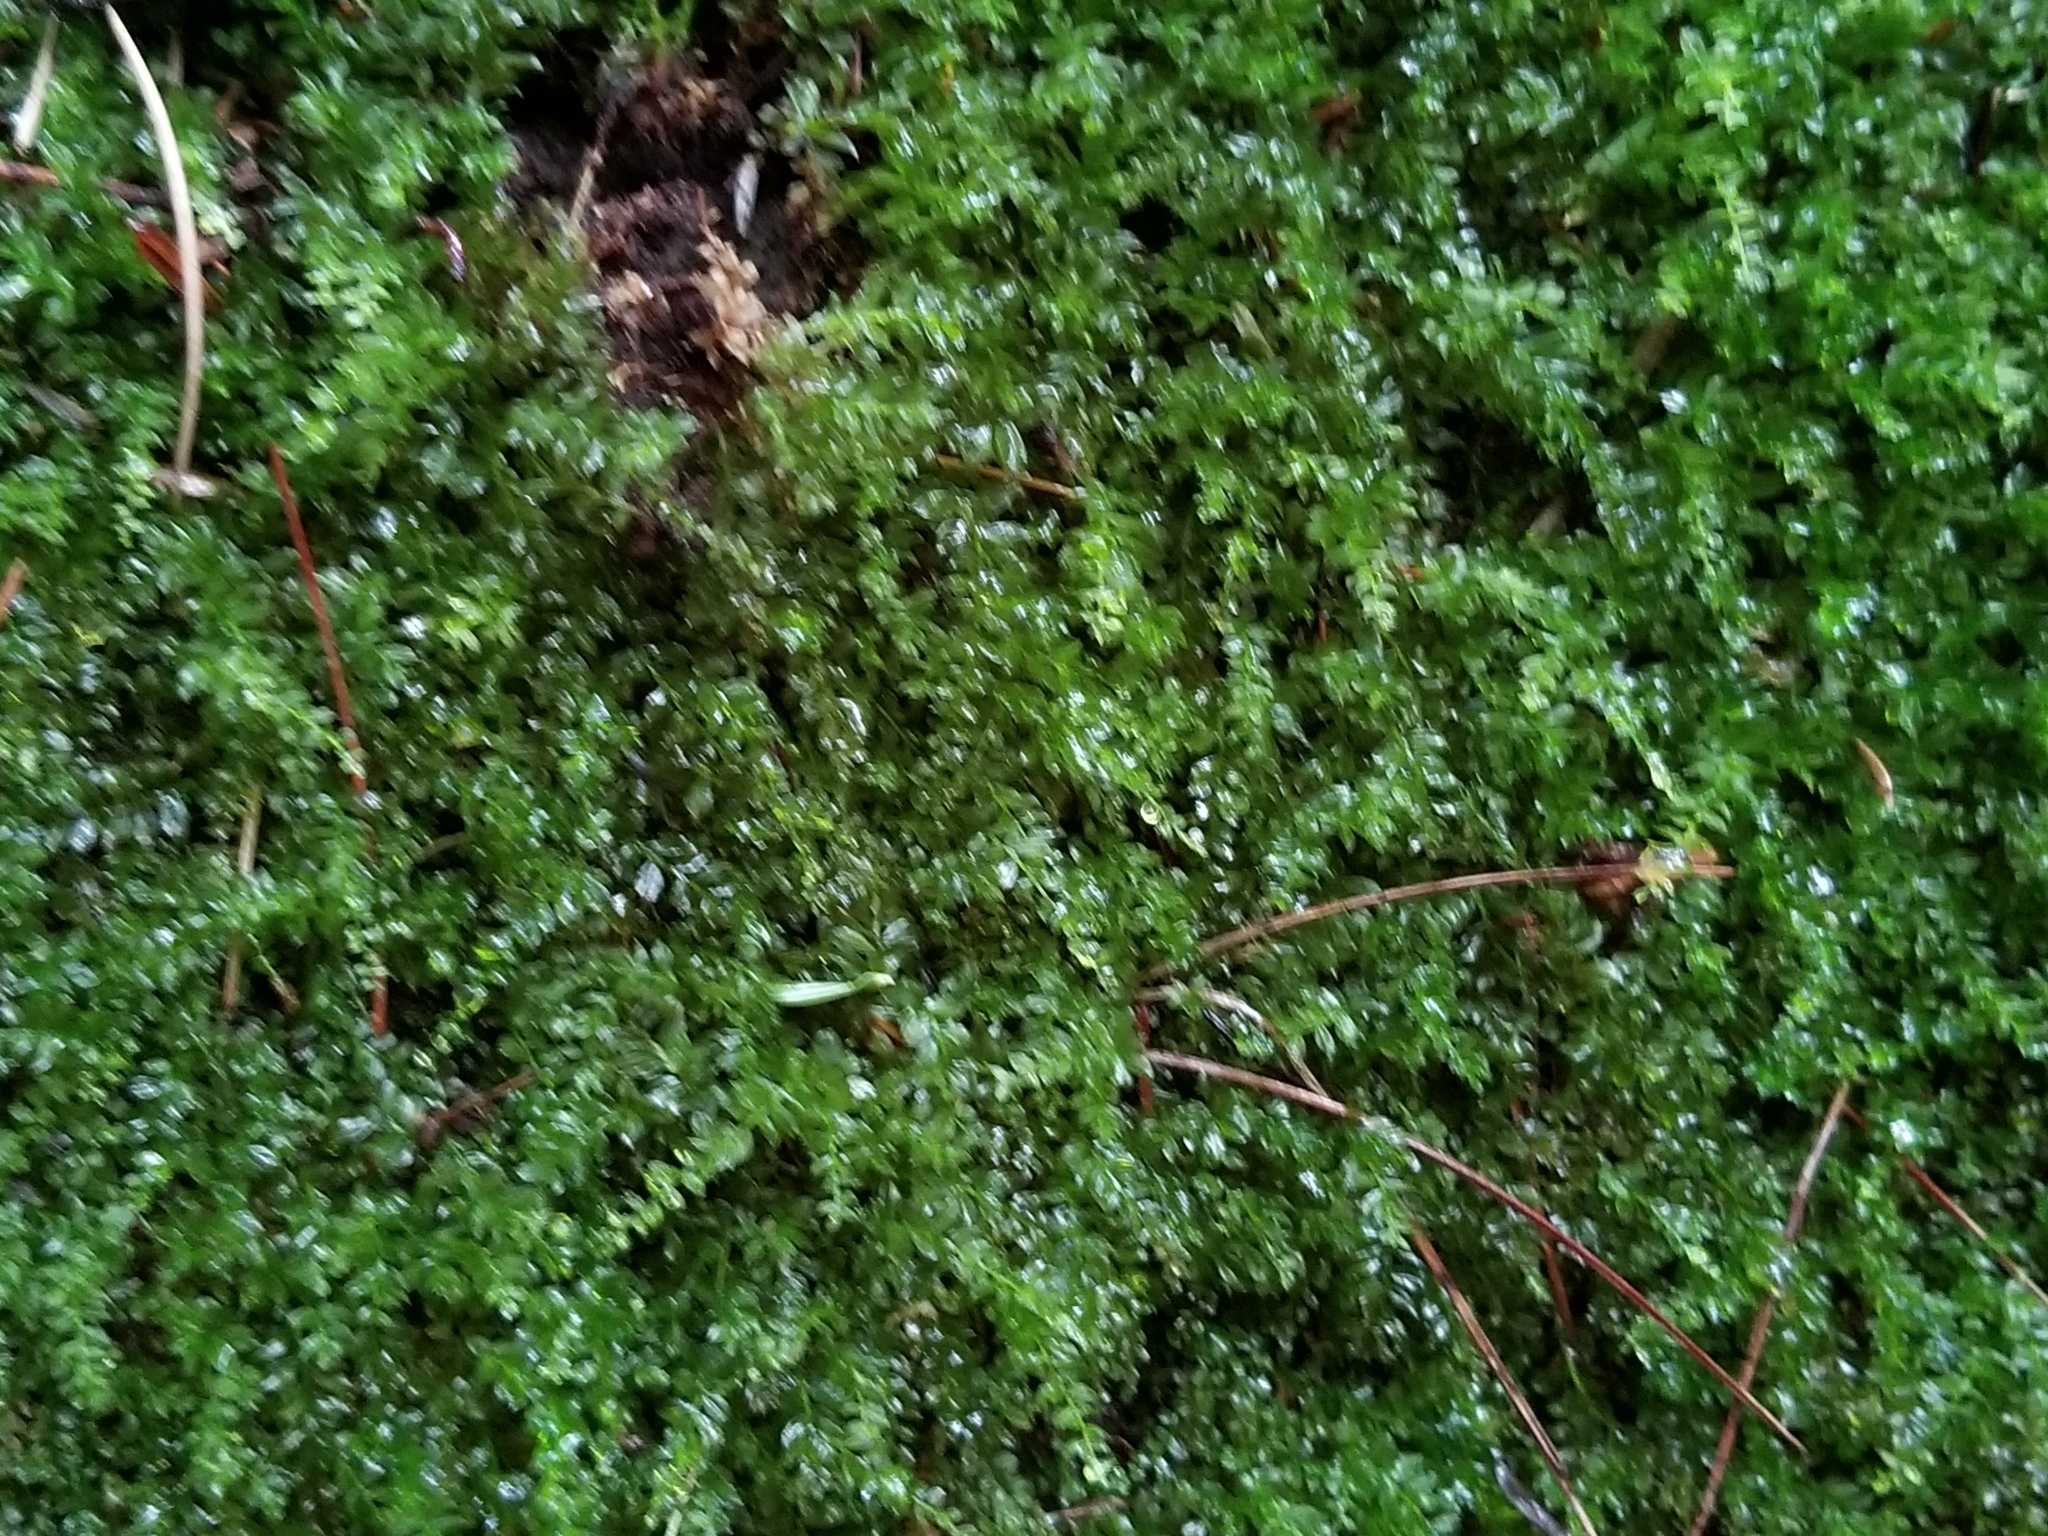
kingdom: Plantae
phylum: Bryophyta
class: Bryopsida
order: Bryales
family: Mniaceae
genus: Plagiomnium
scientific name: Plagiomnium cuspidatum
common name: Woodsy leafy moss
